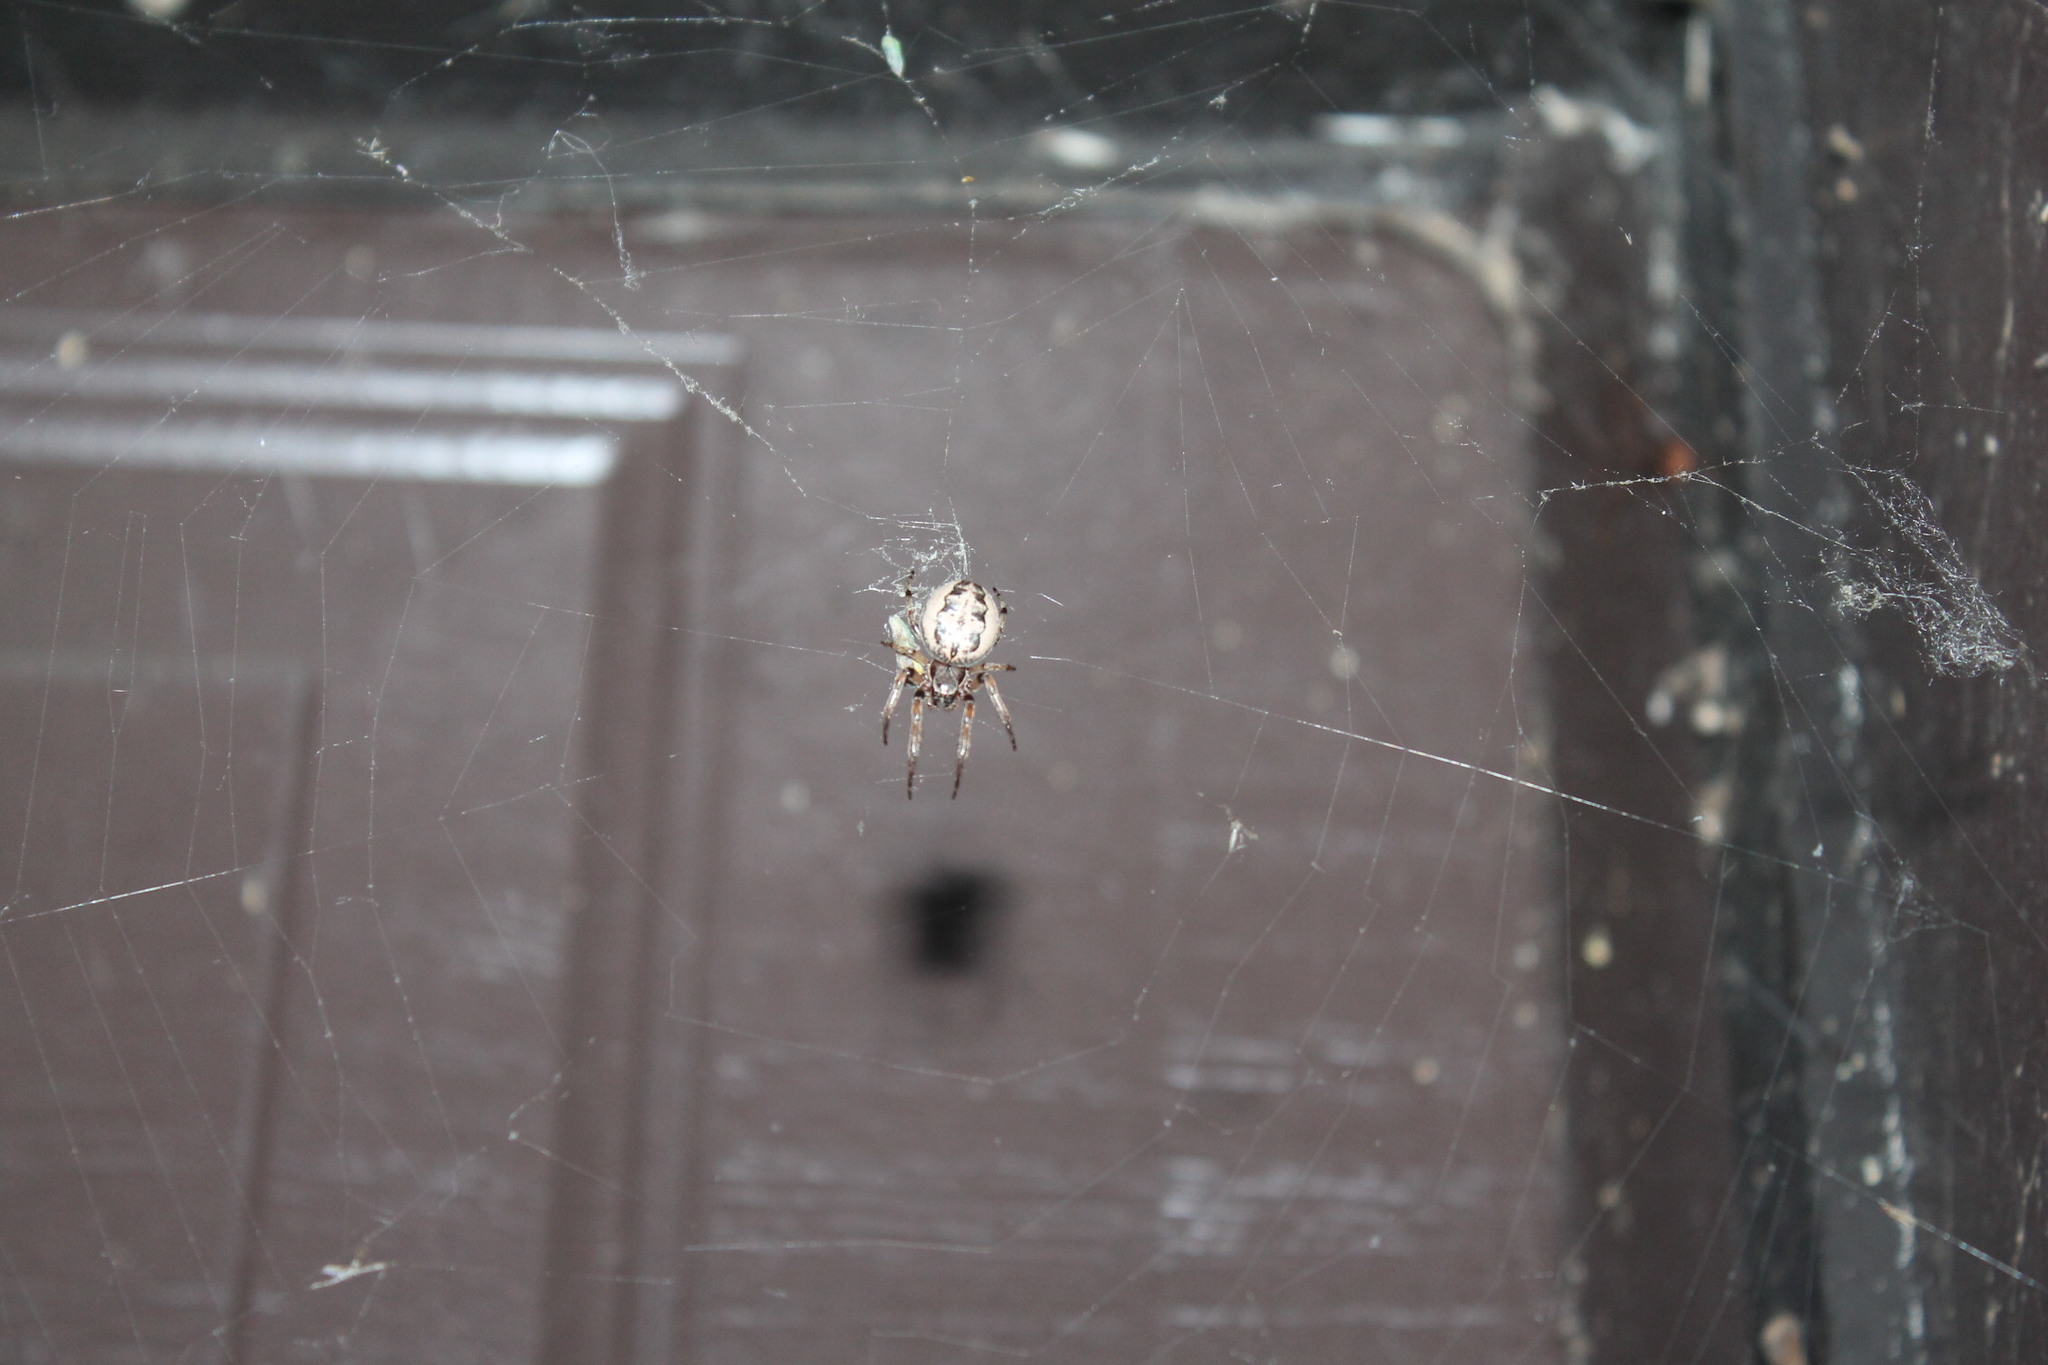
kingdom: Animalia
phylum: Arthropoda
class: Arachnida
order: Araneae
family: Araneidae
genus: Larinioides
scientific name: Larinioides cornutus
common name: Furrow orbweaver
